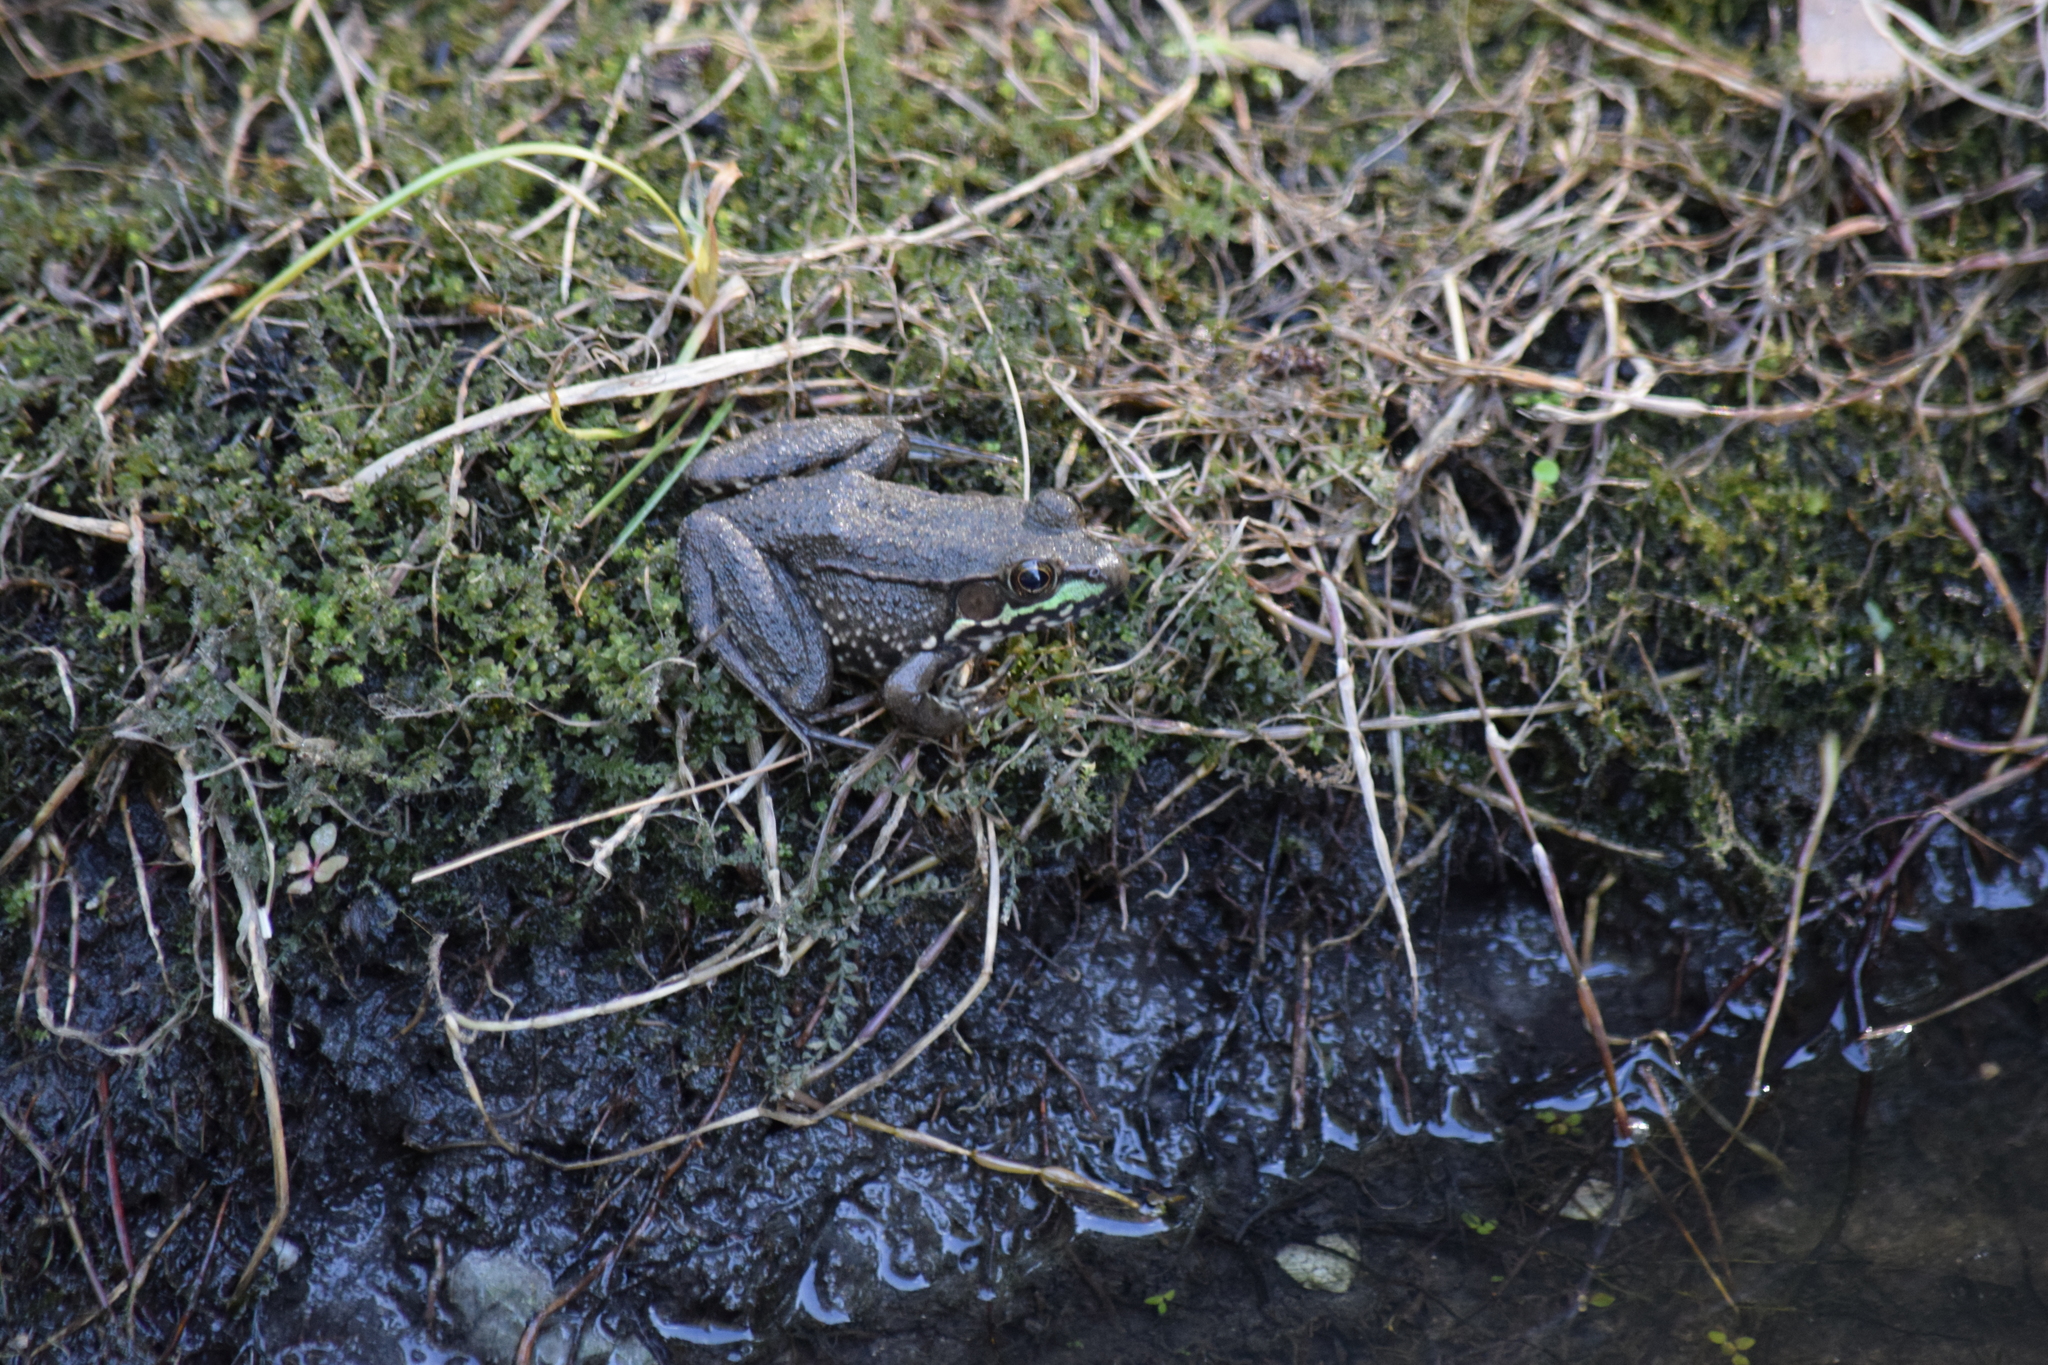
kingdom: Animalia
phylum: Chordata
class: Amphibia
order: Anura
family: Ranidae
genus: Lithobates
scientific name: Lithobates clamitans
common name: Green frog
